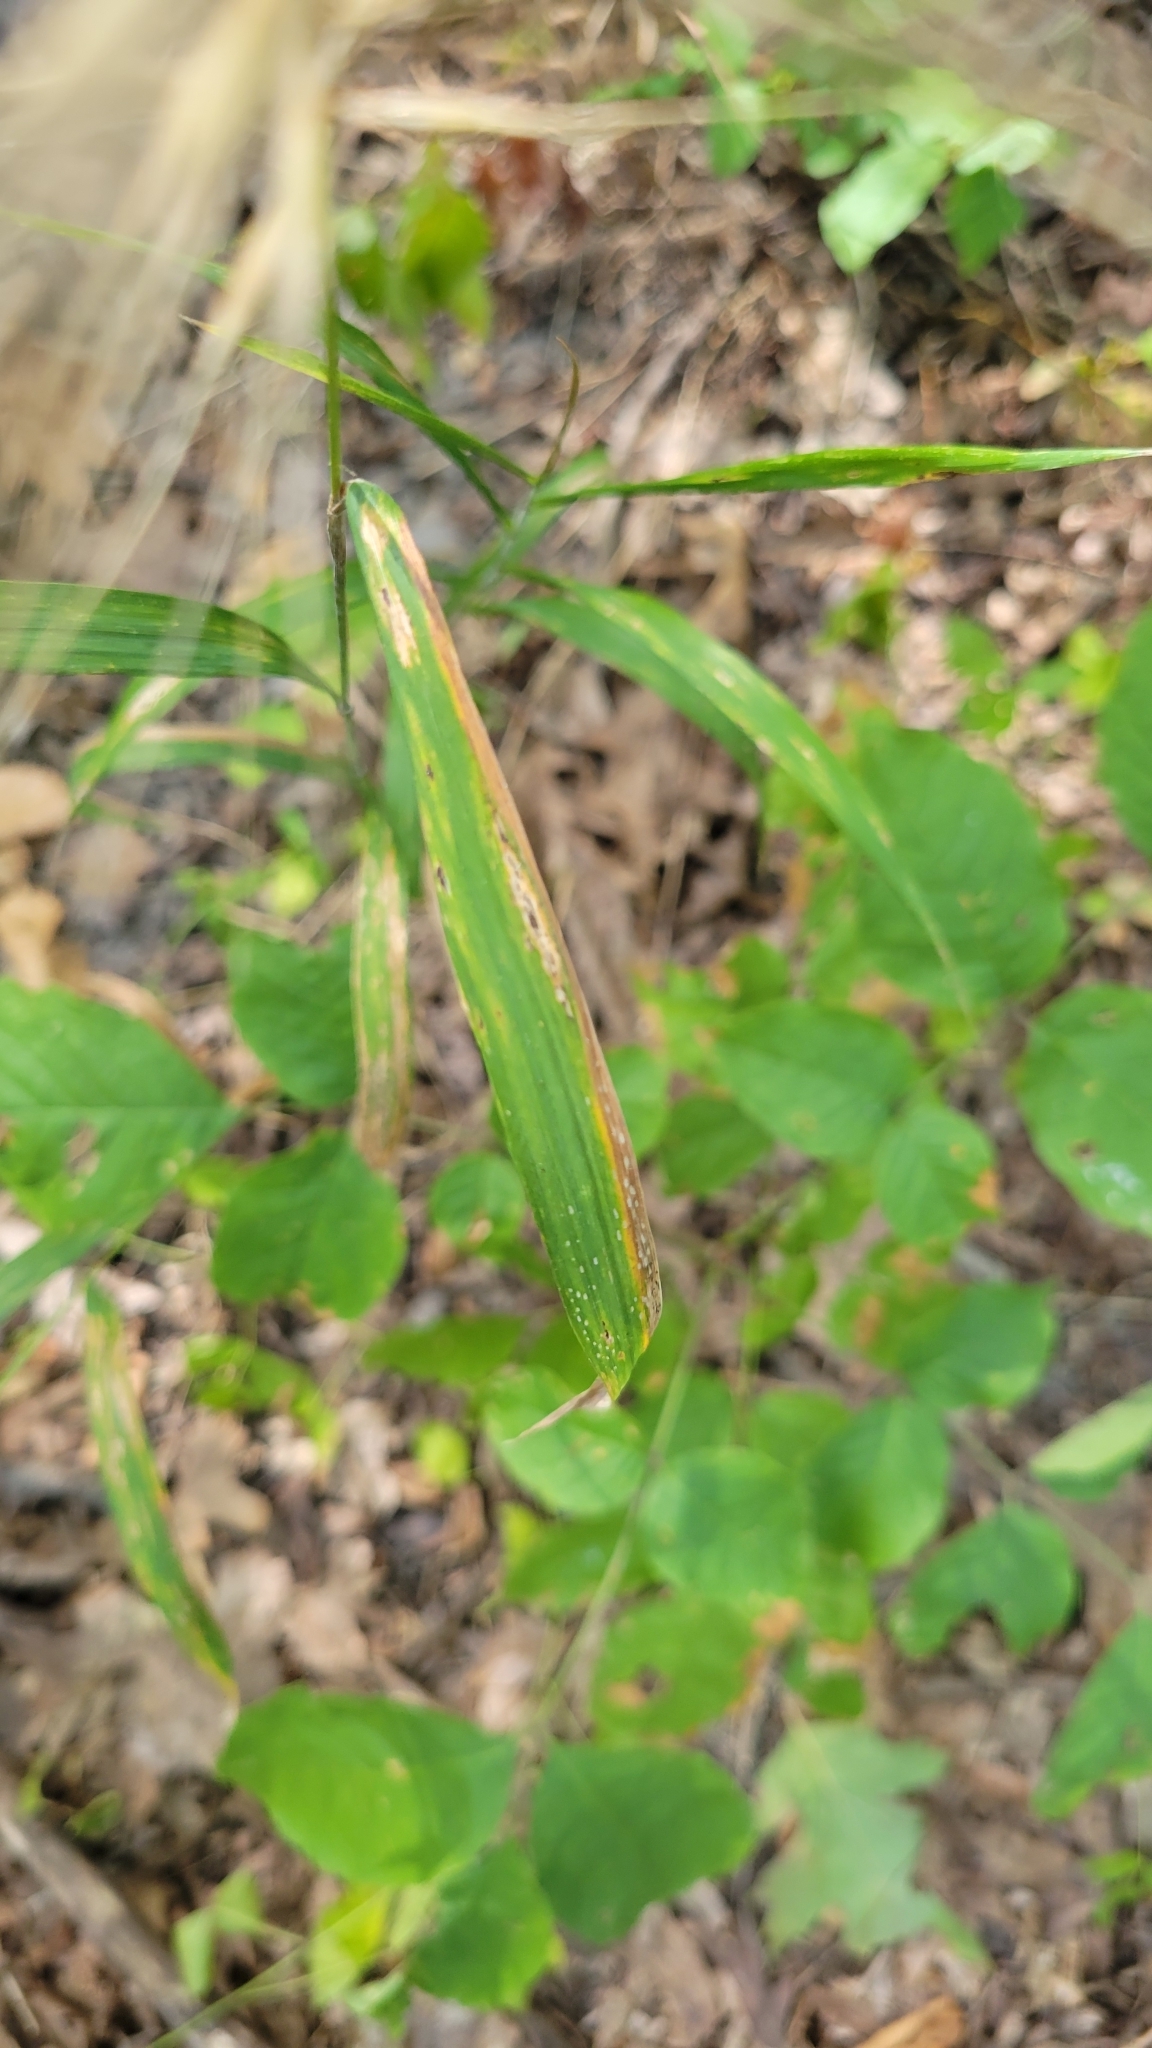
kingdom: Plantae
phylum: Tracheophyta
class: Liliopsida
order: Poales
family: Poaceae
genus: Elymus
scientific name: Elymus hystrix
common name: Bottlebrush grass
